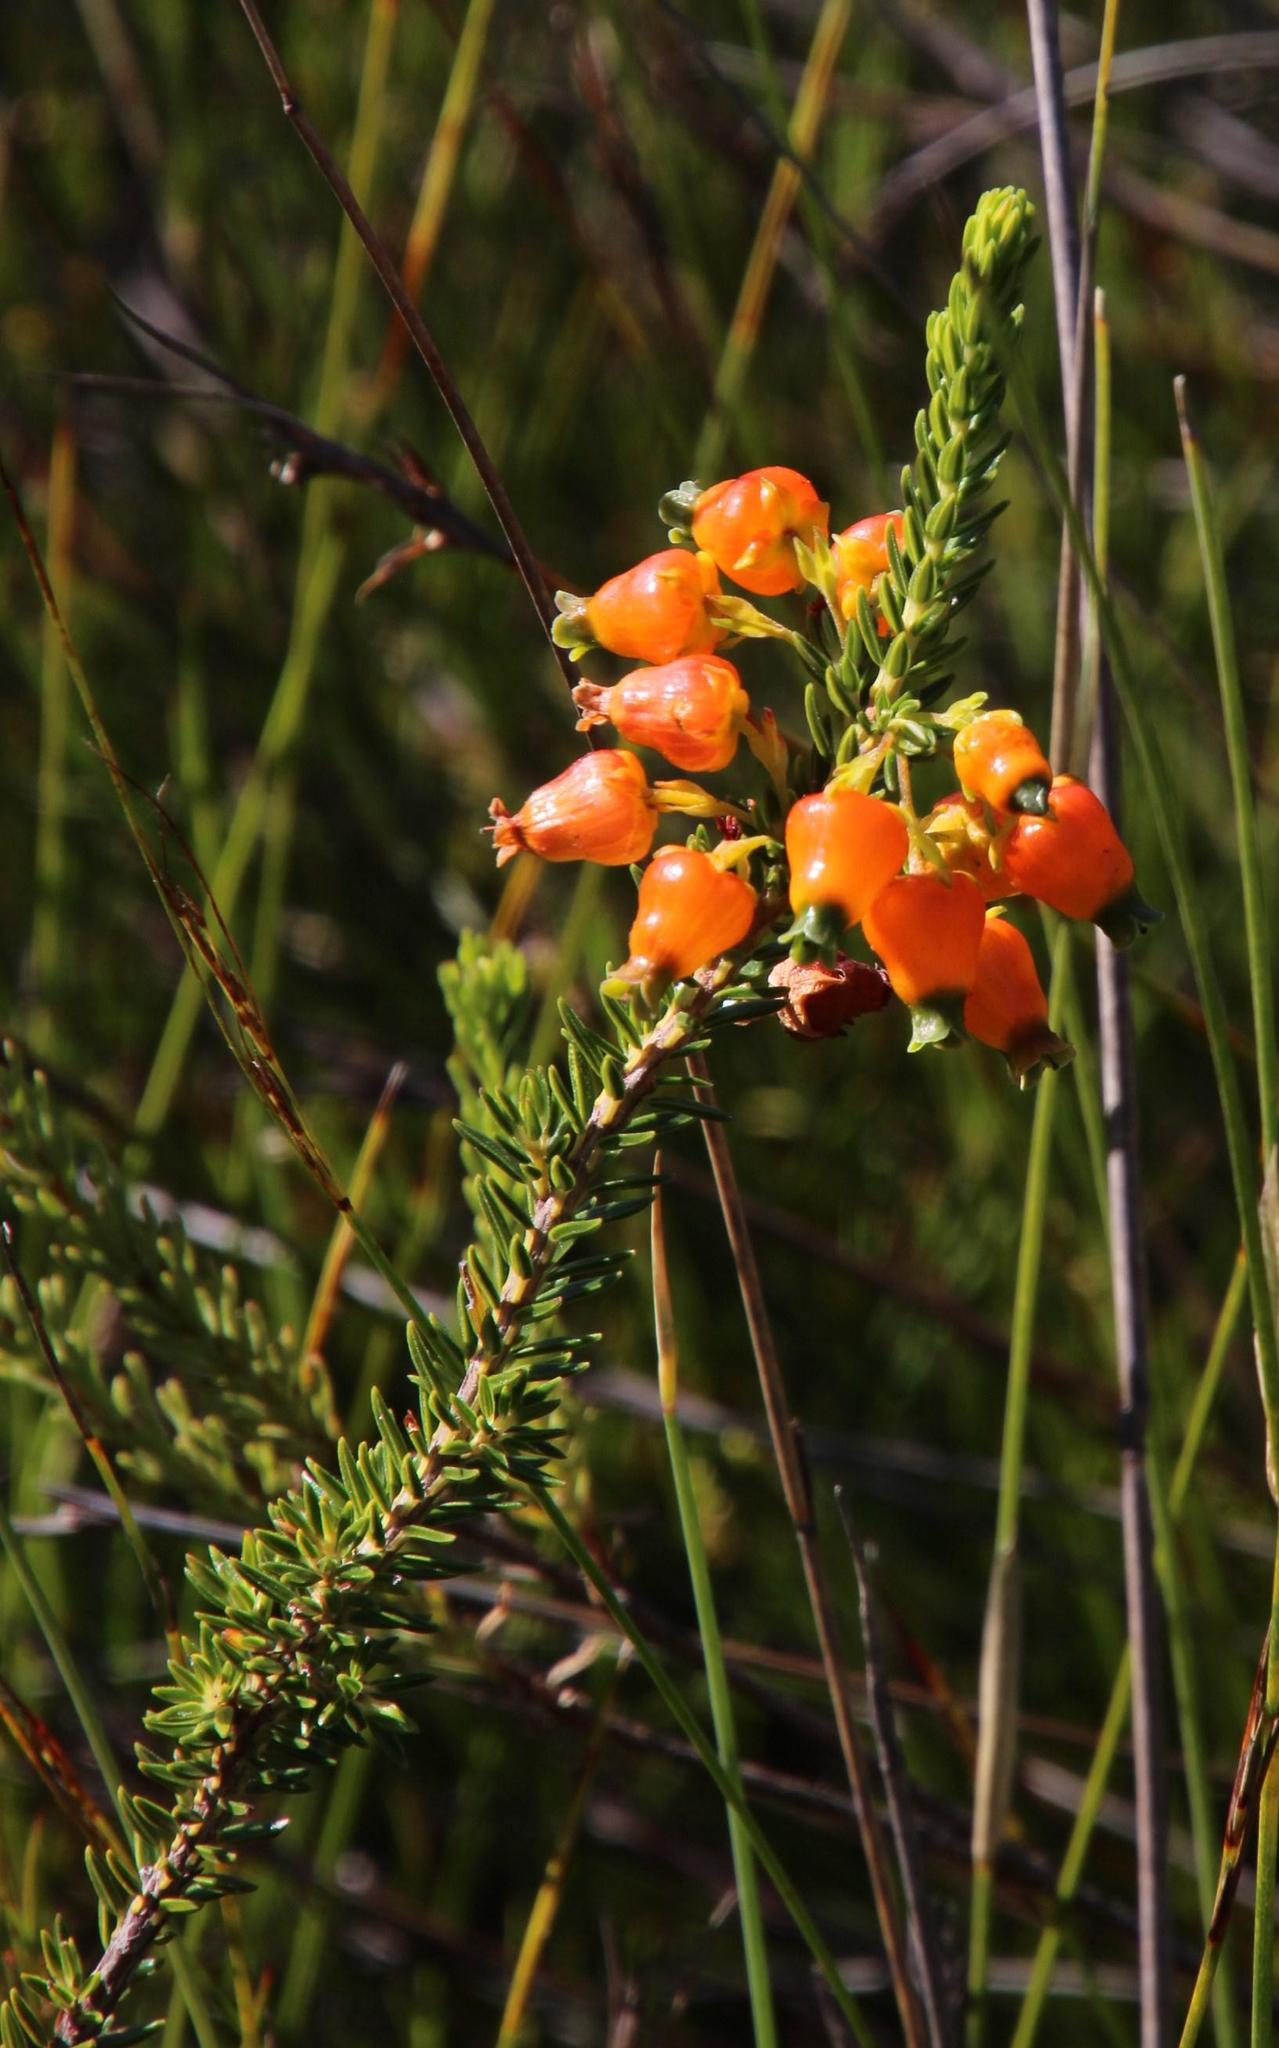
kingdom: Plantae
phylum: Tracheophyta
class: Magnoliopsida
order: Ericales
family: Ericaceae
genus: Erica
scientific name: Erica blenna
